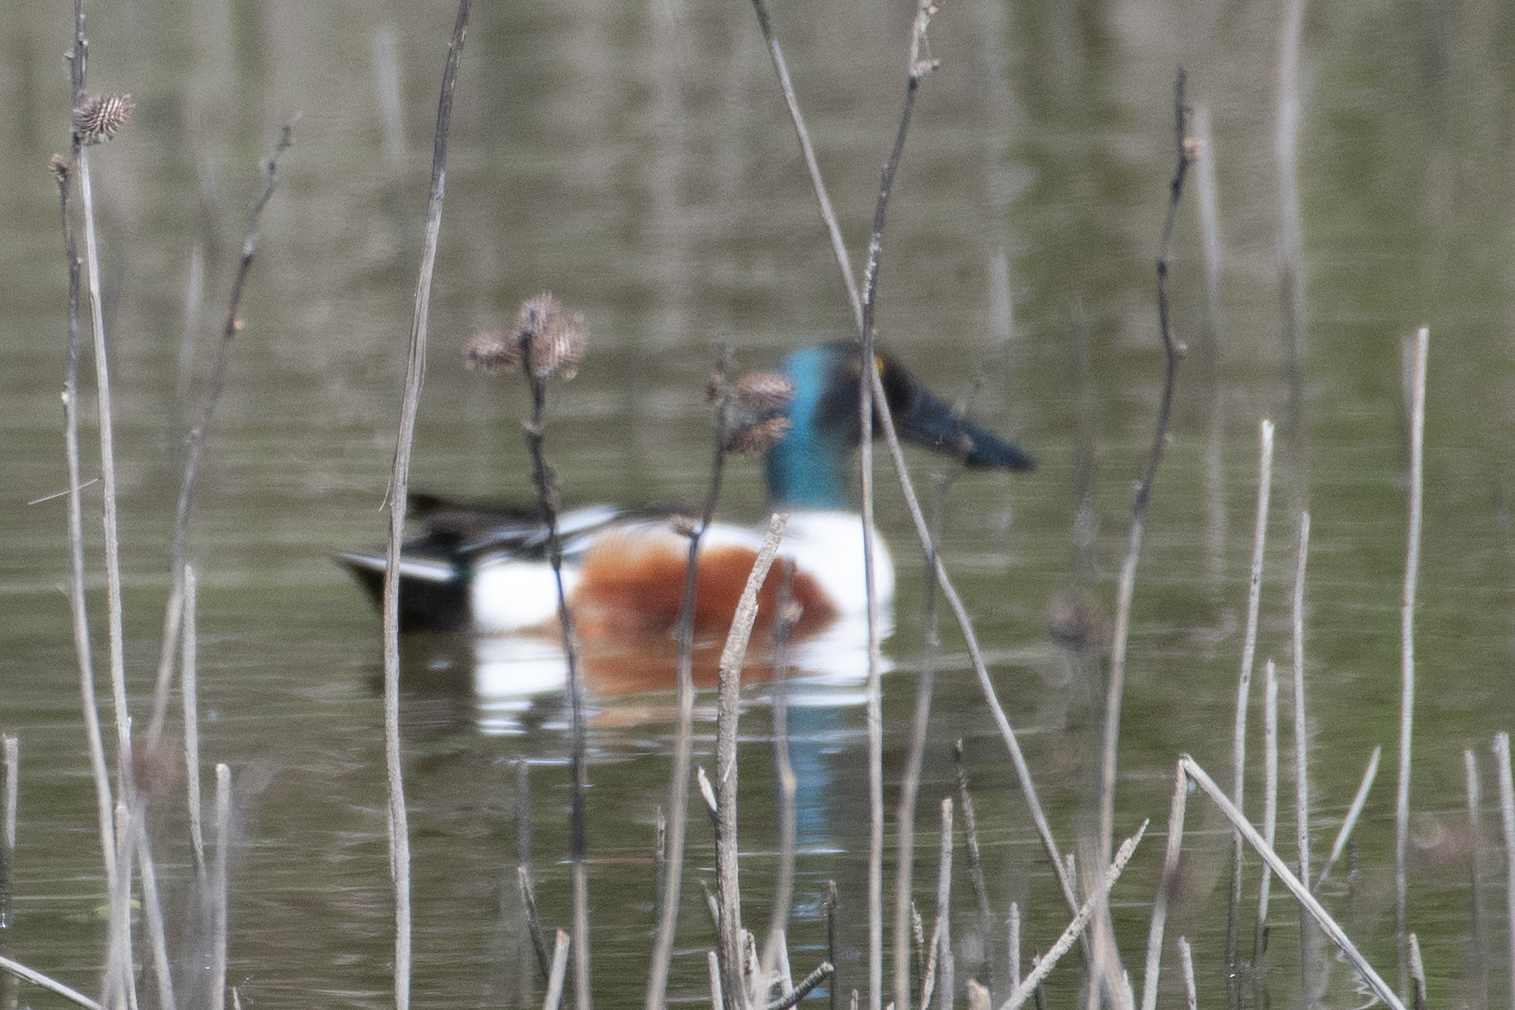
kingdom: Animalia
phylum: Chordata
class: Aves
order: Anseriformes
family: Anatidae
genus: Spatula
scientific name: Spatula clypeata
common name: Northern shoveler
